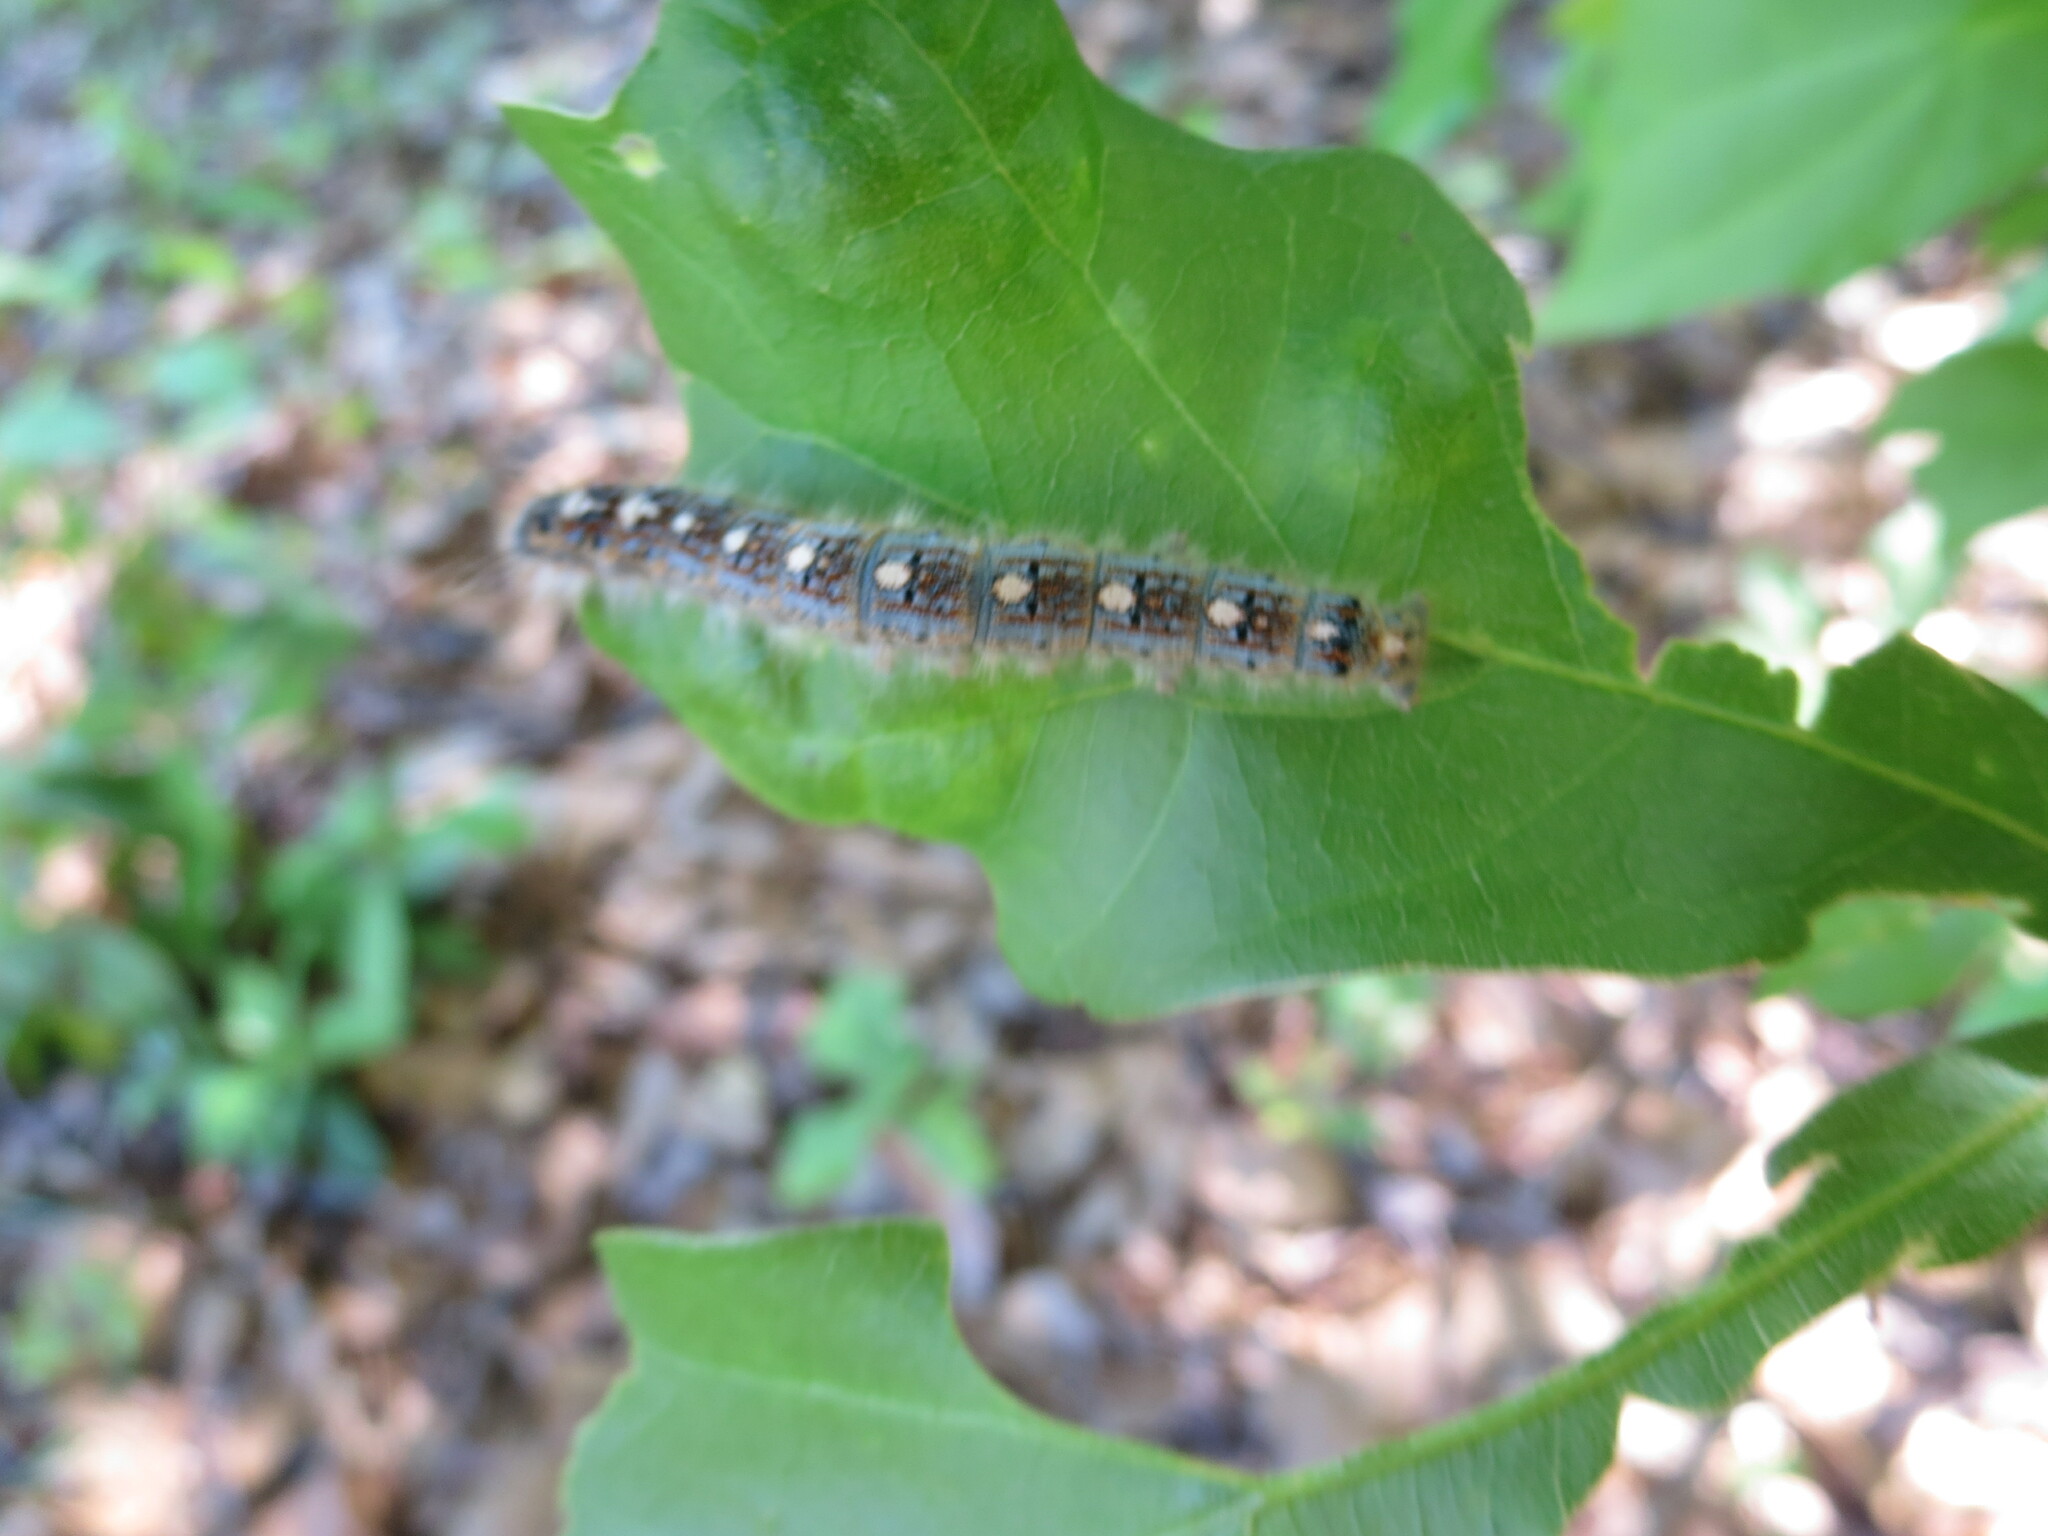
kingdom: Animalia
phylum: Arthropoda
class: Insecta
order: Lepidoptera
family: Lasiocampidae
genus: Malacosoma
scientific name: Malacosoma disstria
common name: Forest tent caterpillar
